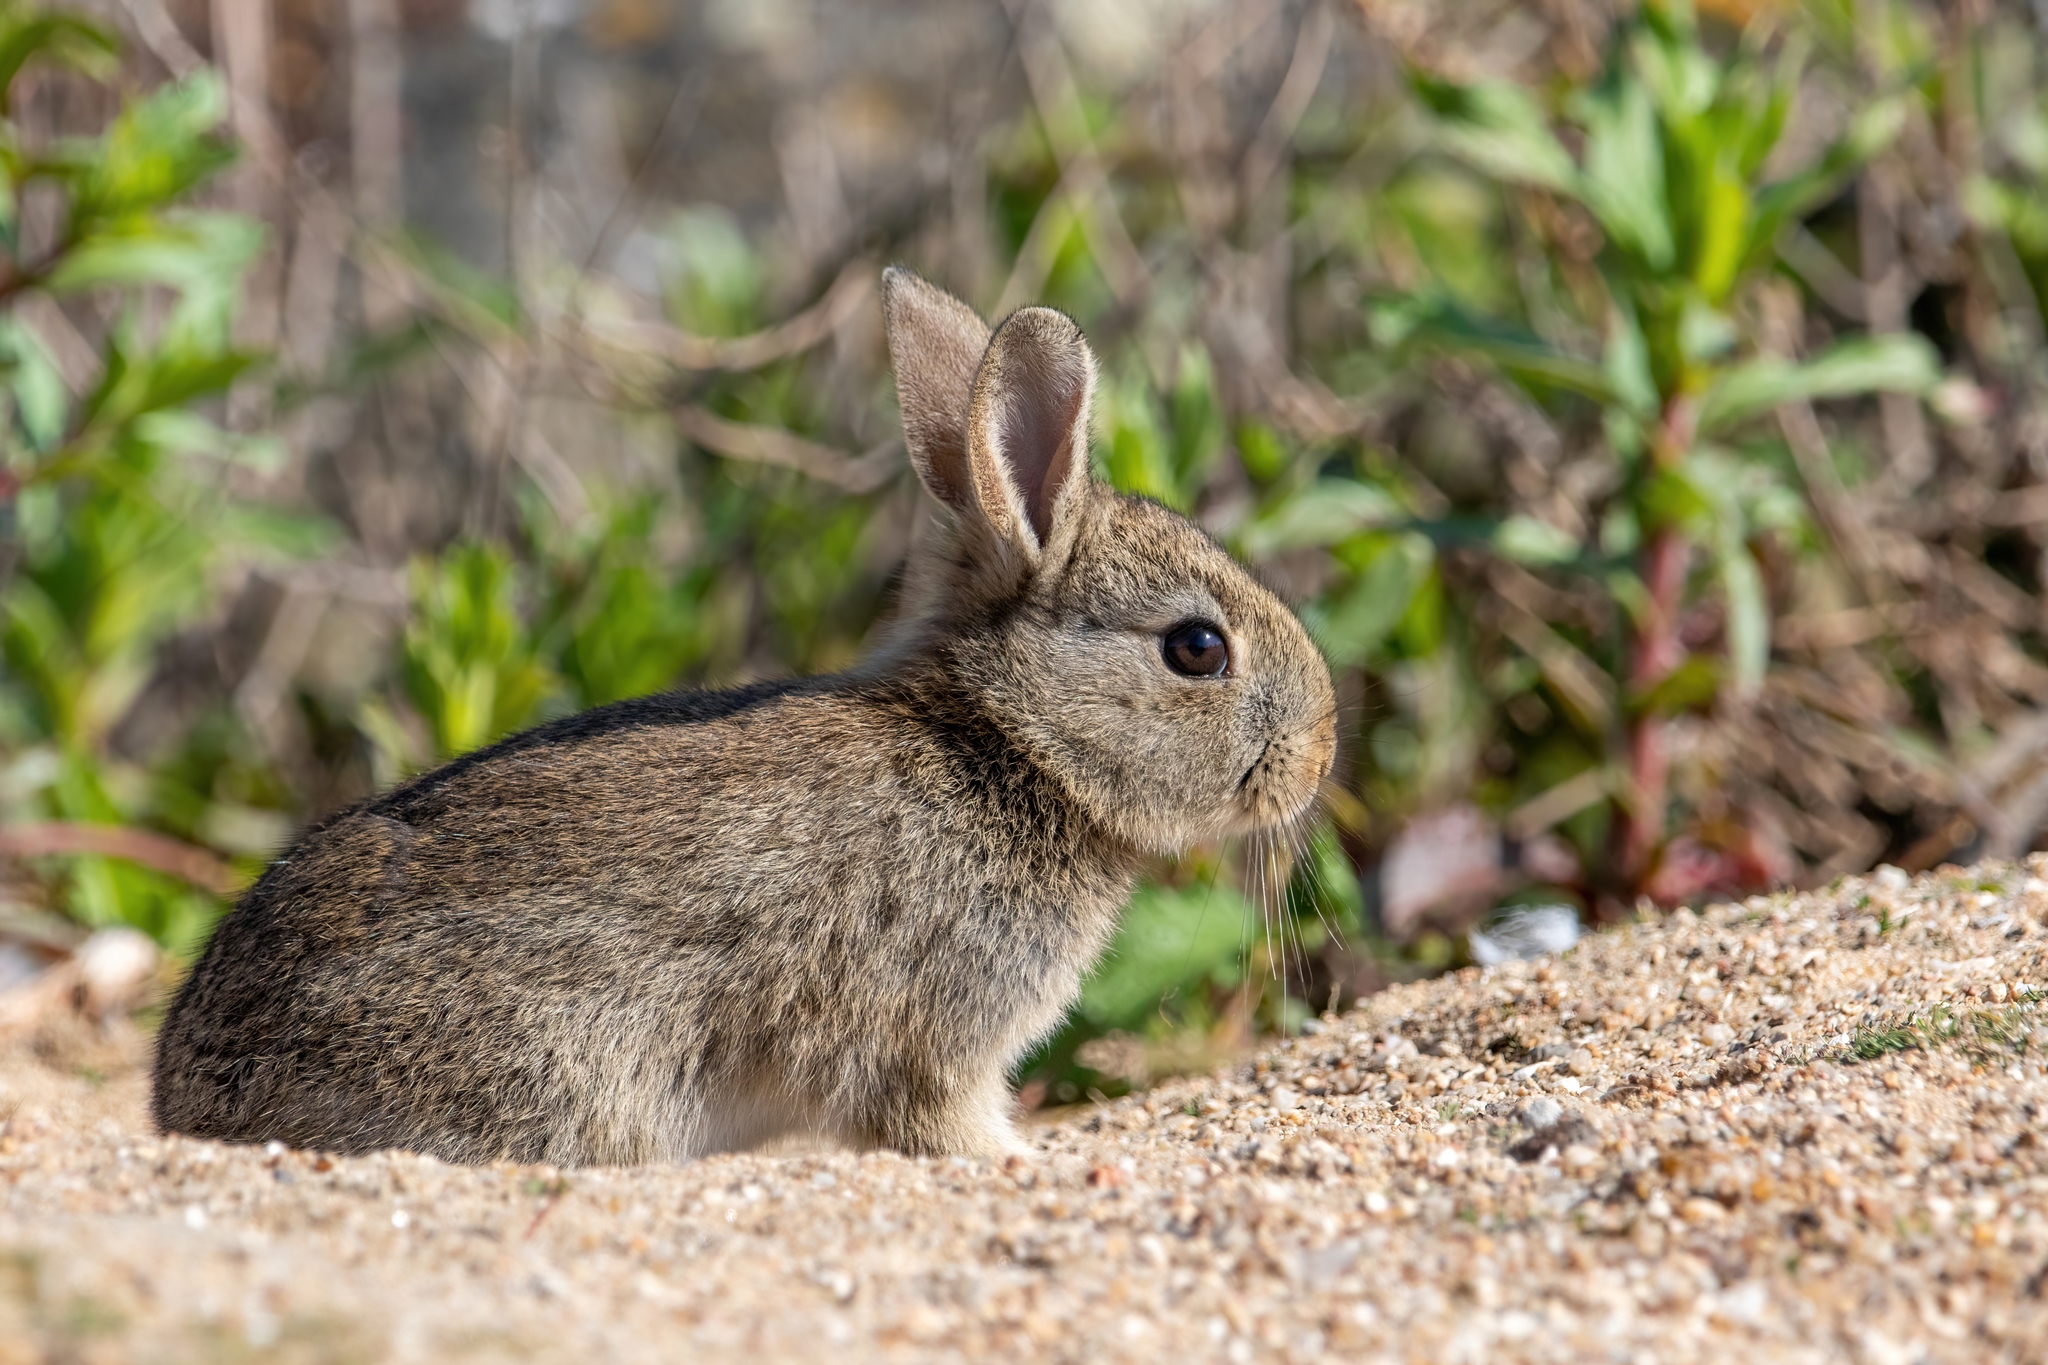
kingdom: Animalia
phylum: Chordata
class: Mammalia
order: Lagomorpha
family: Leporidae
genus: Oryctolagus
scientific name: Oryctolagus cuniculus
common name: European rabbit
